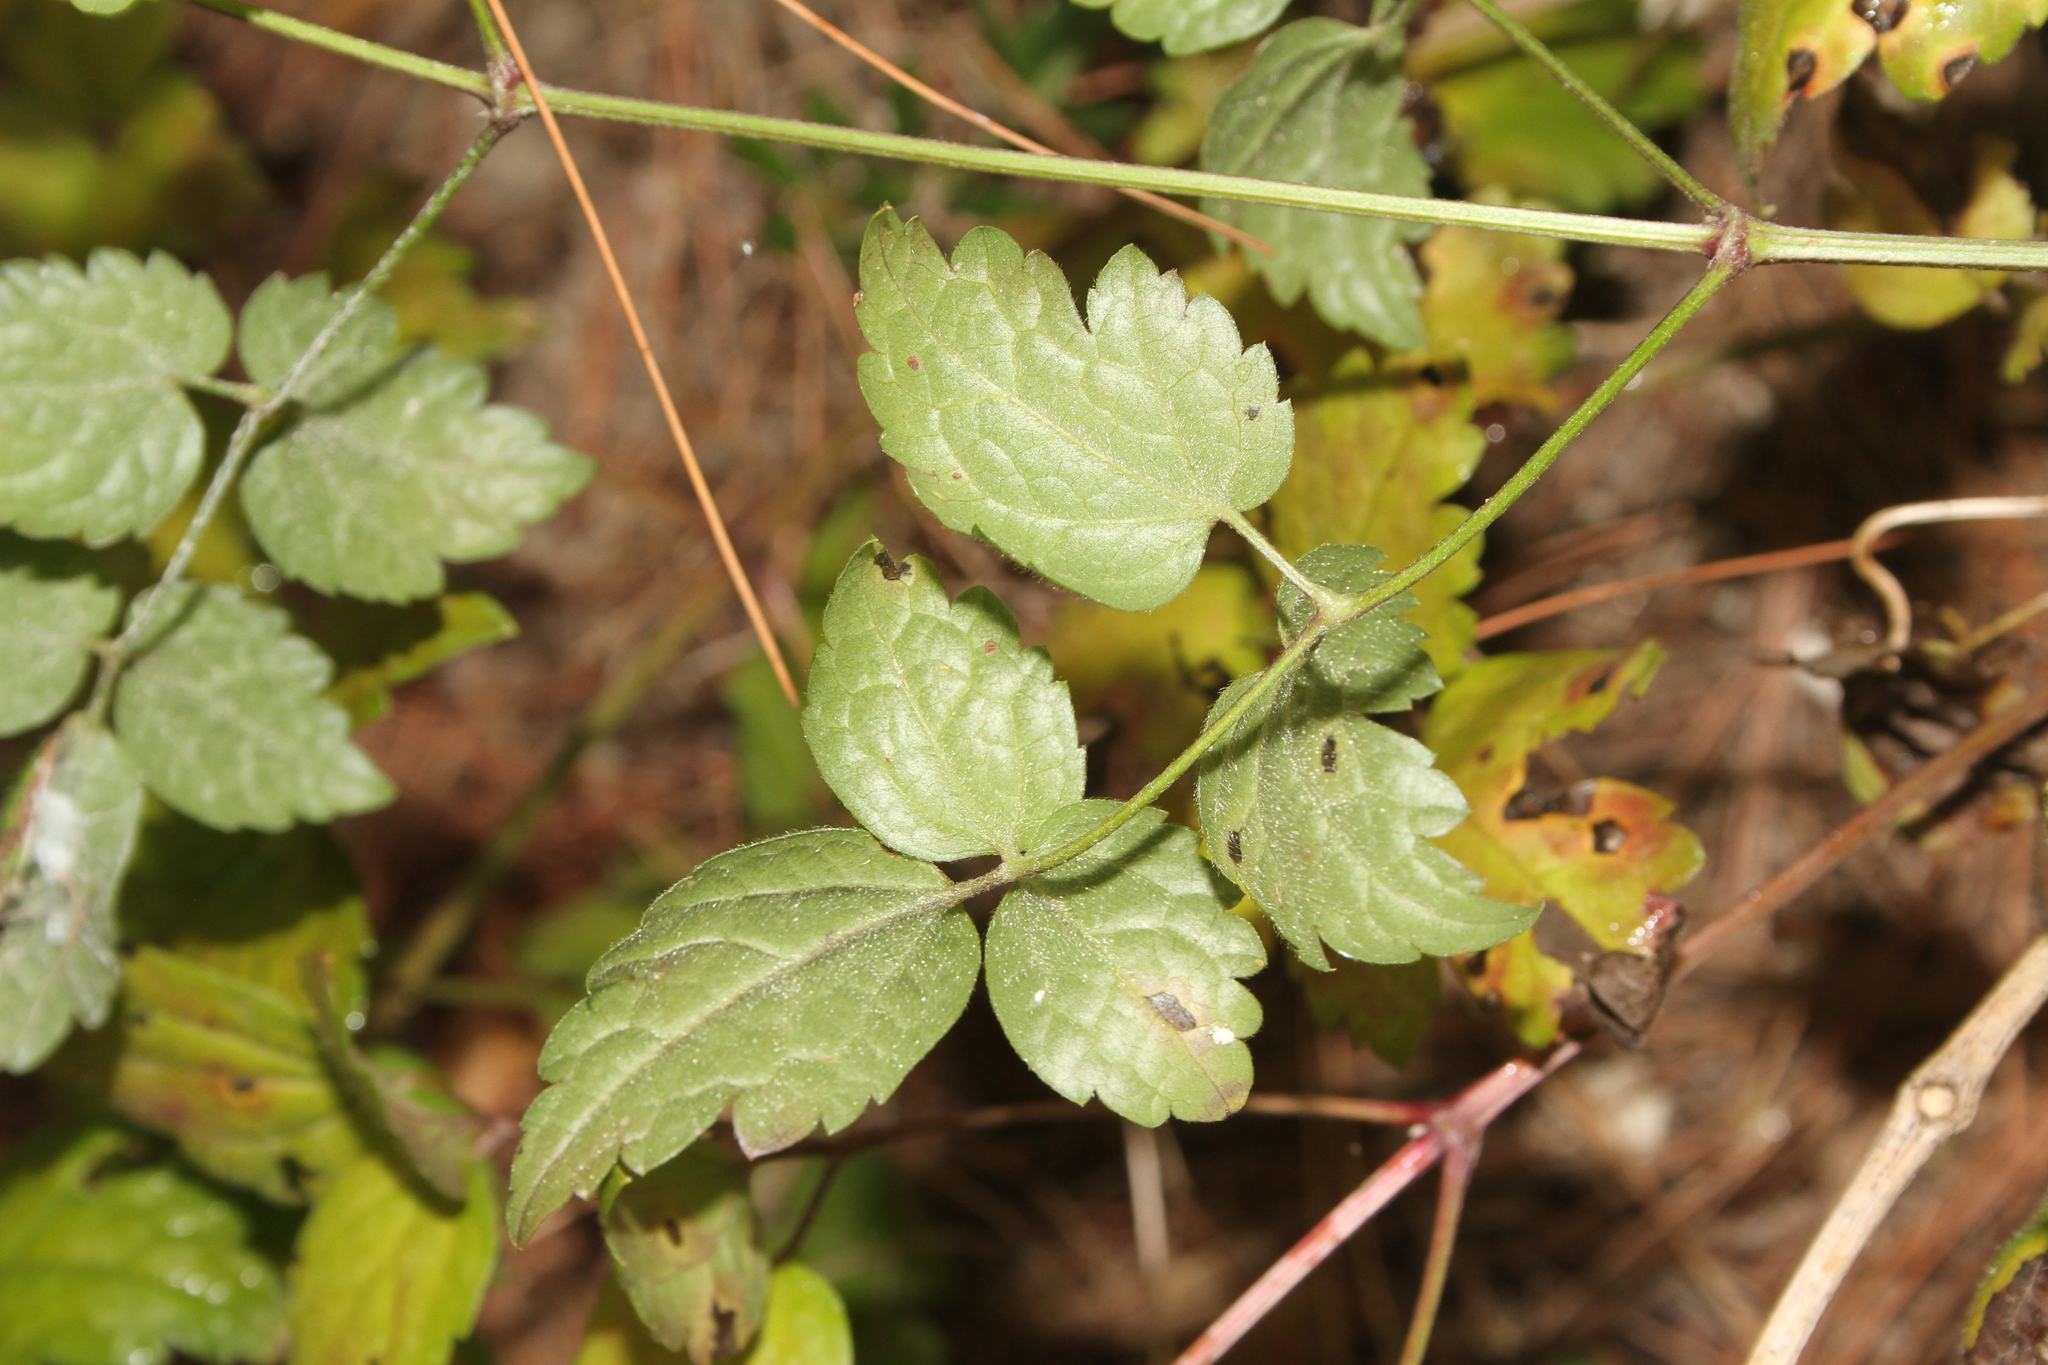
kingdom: Plantae
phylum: Tracheophyta
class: Magnoliopsida
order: Ranunculales
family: Ranunculaceae
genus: Clematis
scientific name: Clematis vitalba
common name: Evergreen clematis
